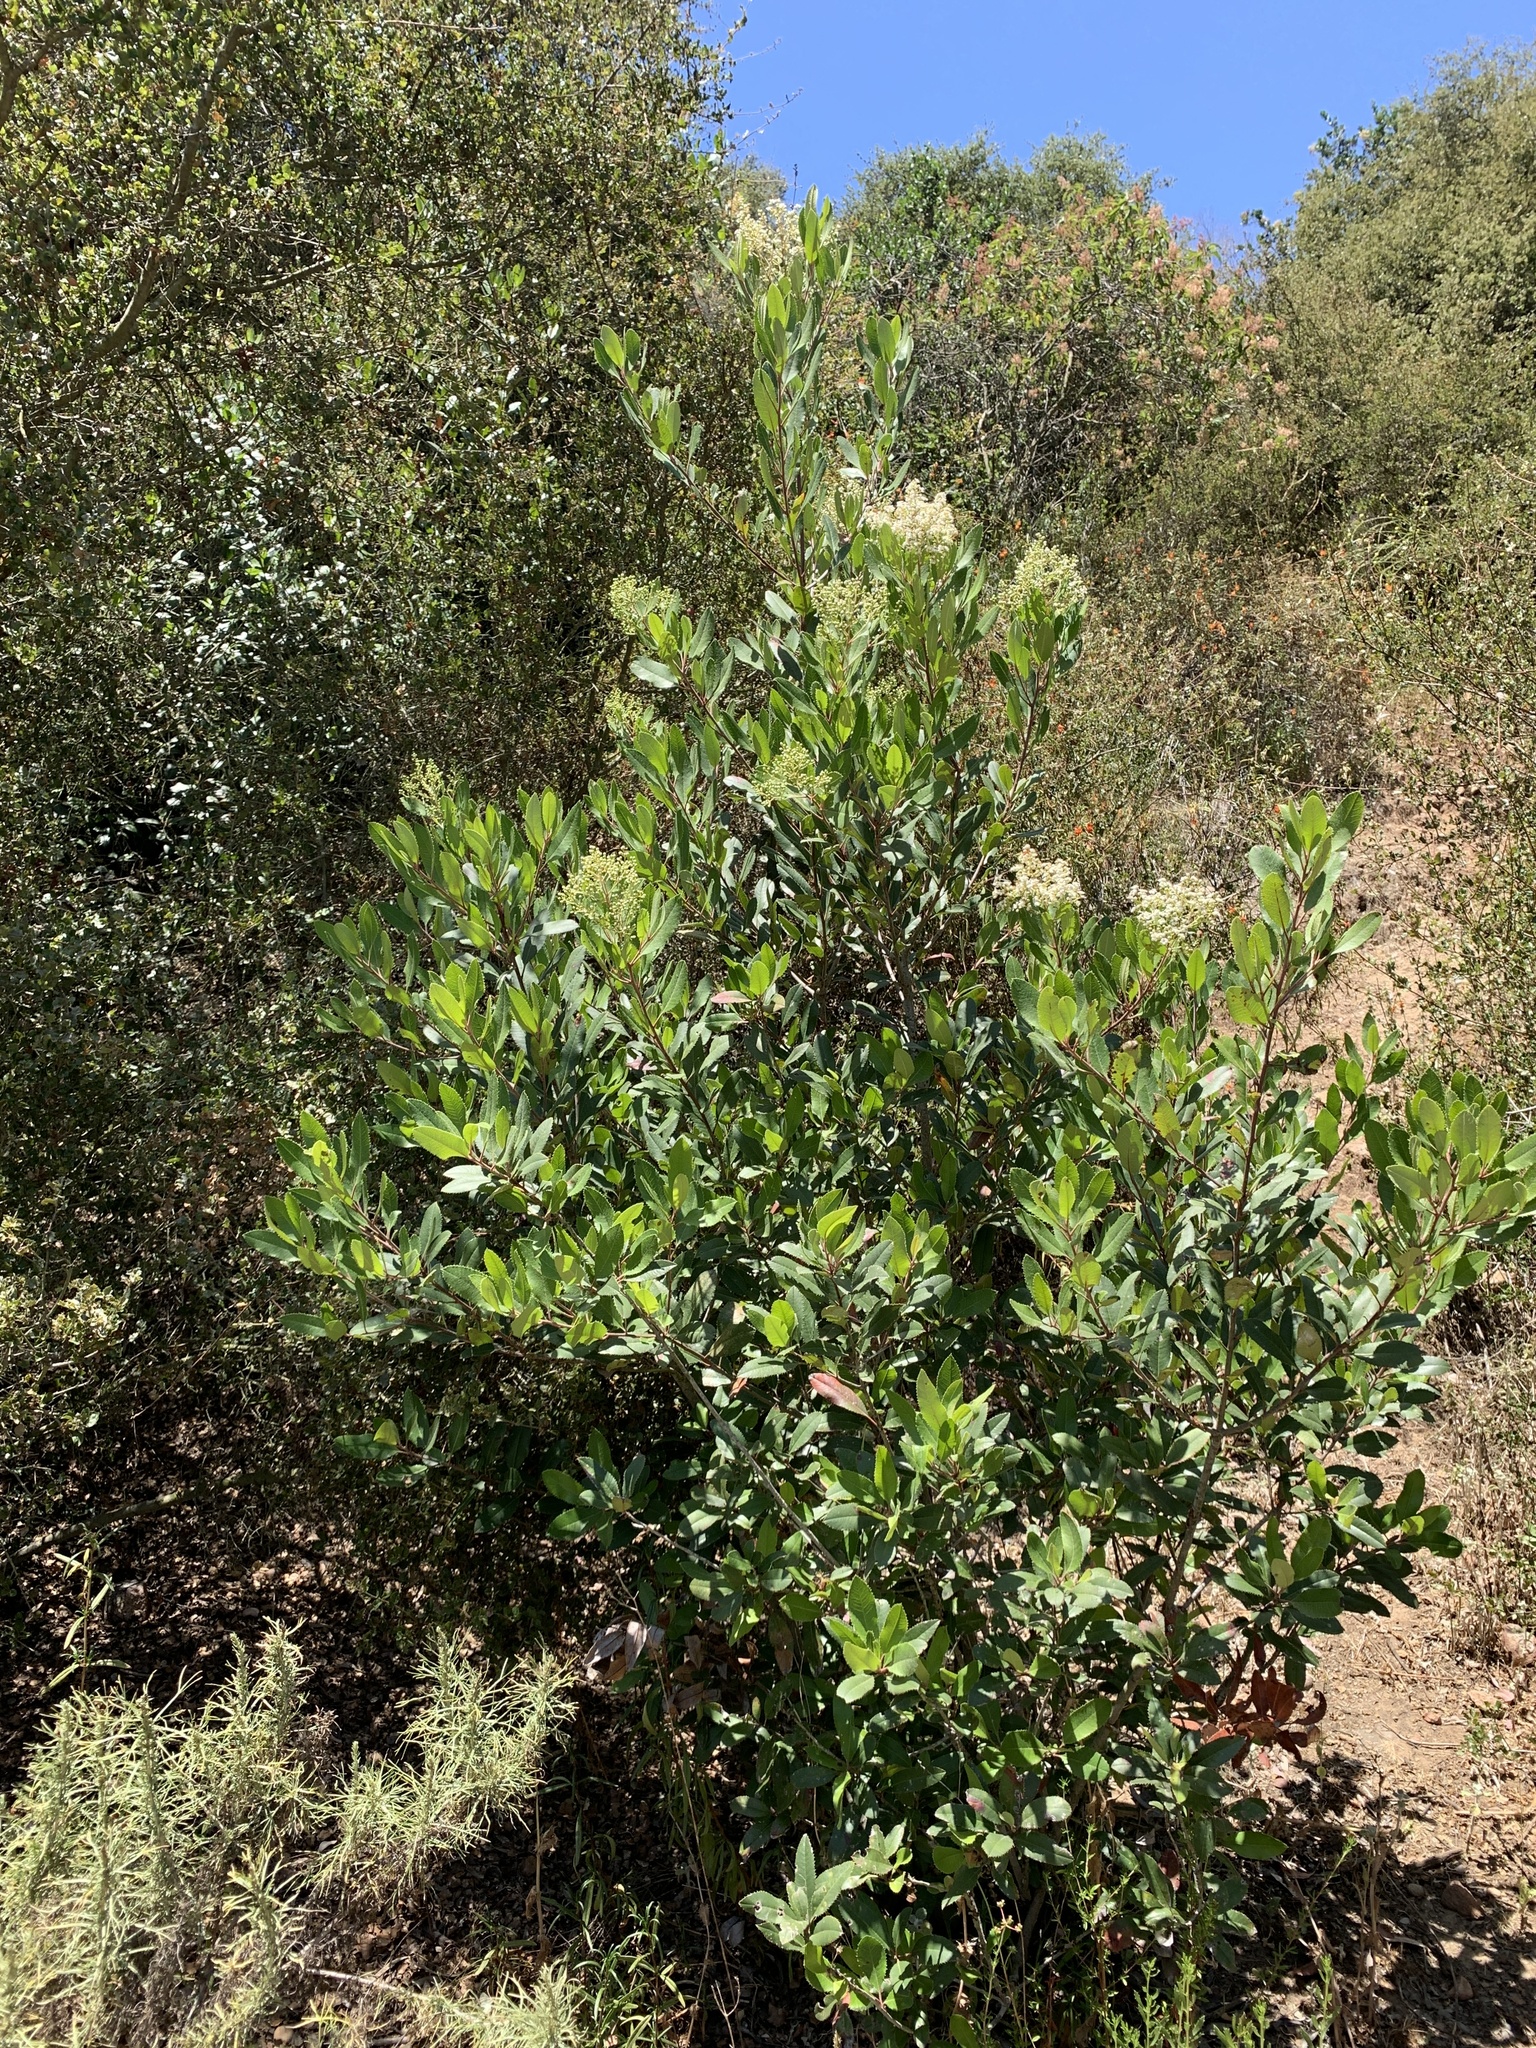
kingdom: Plantae
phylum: Tracheophyta
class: Magnoliopsida
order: Rosales
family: Rosaceae
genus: Heteromeles
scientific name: Heteromeles arbutifolia
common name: California-holly
